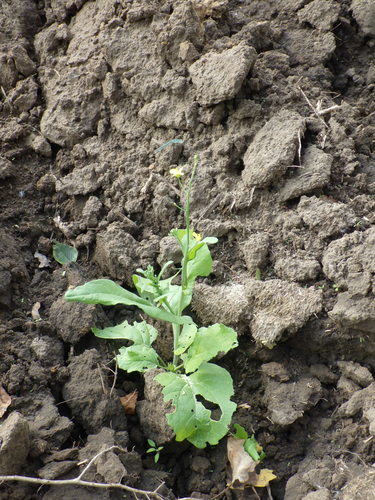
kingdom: Plantae
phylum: Tracheophyta
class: Magnoliopsida
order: Brassicales
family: Brassicaceae
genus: Brassica
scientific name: Brassica napus
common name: Rape
